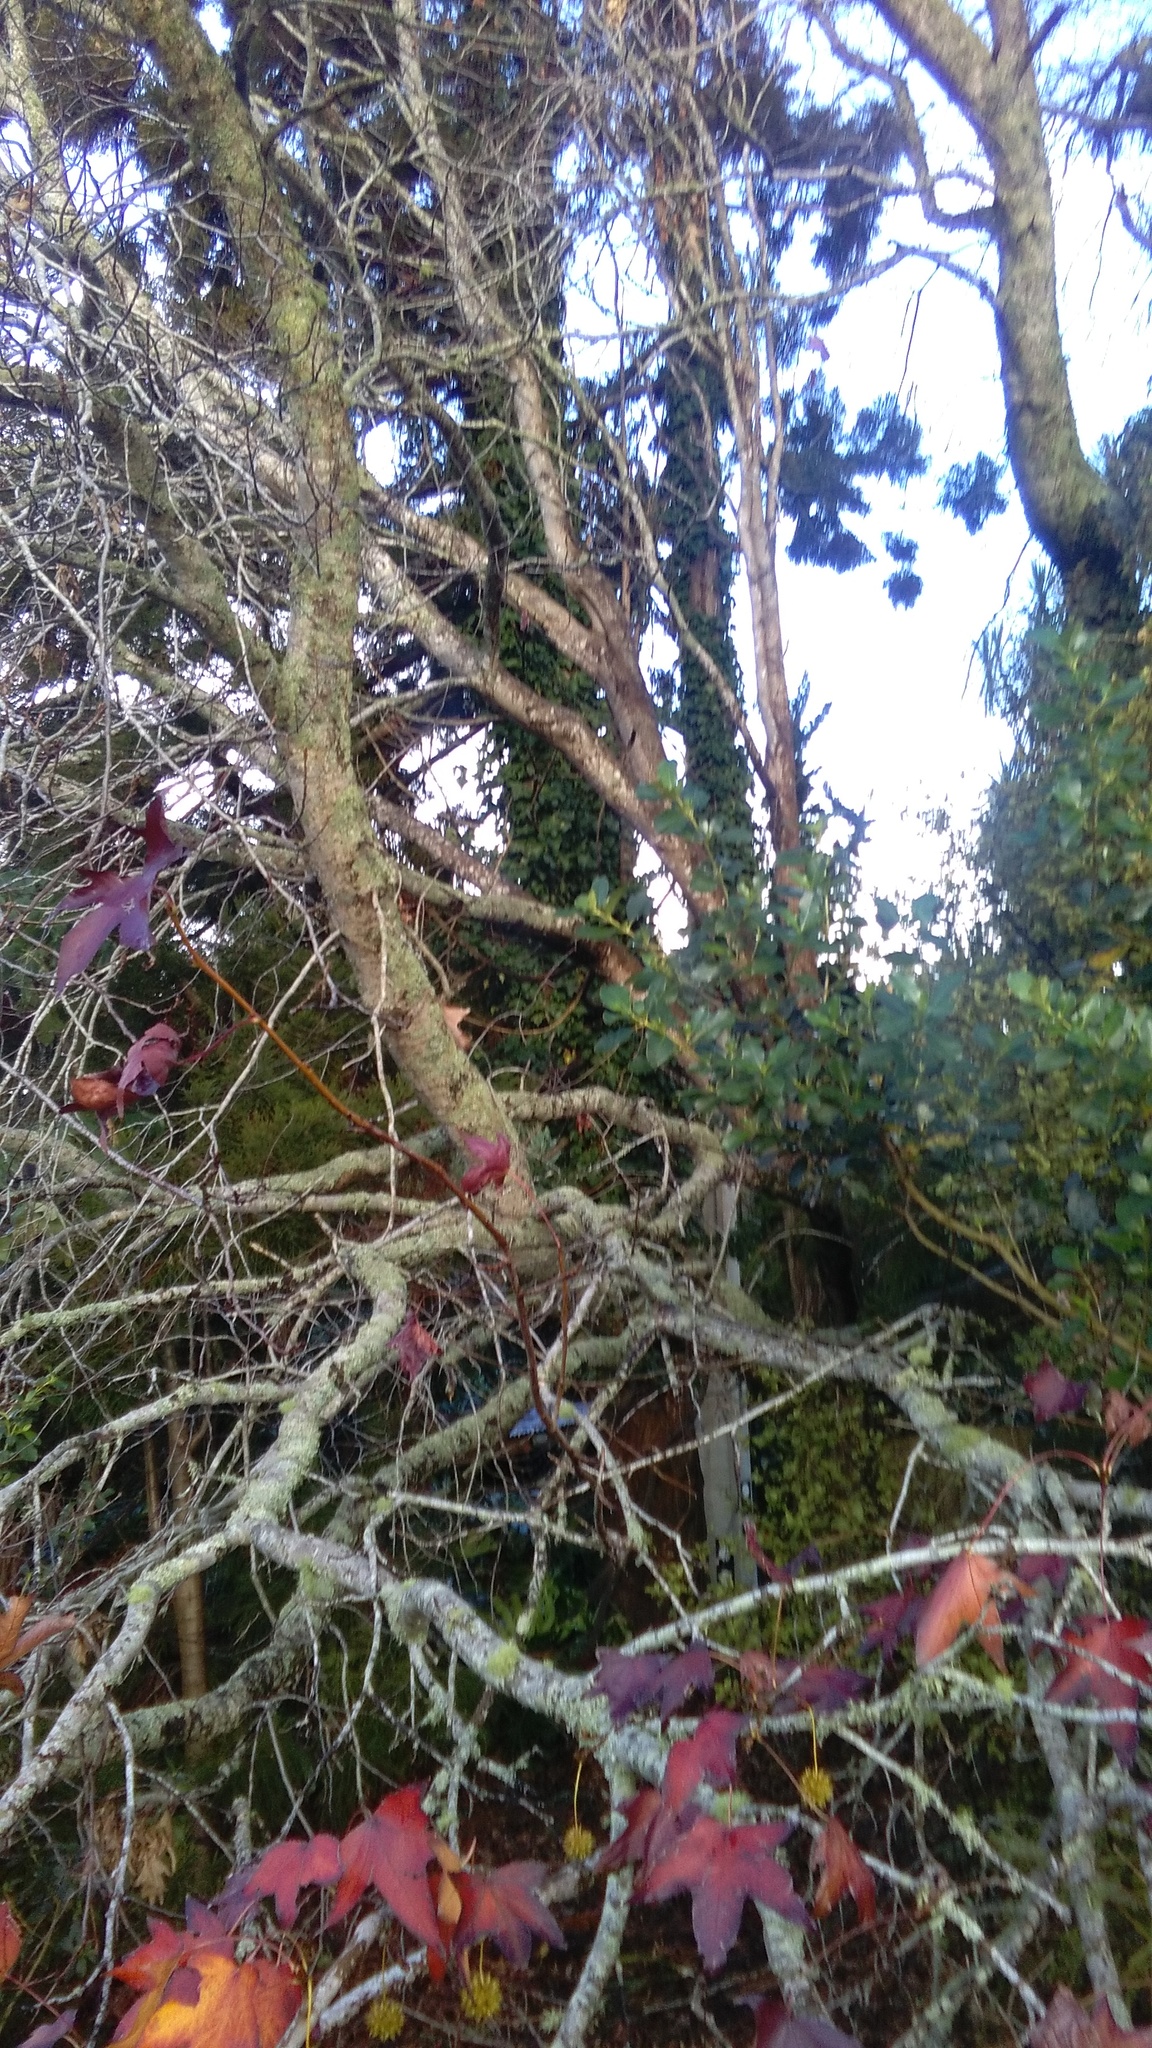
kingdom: Plantae
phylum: Tracheophyta
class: Magnoliopsida
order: Apiales
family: Araliaceae
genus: Hedera
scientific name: Hedera helix
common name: Ivy
